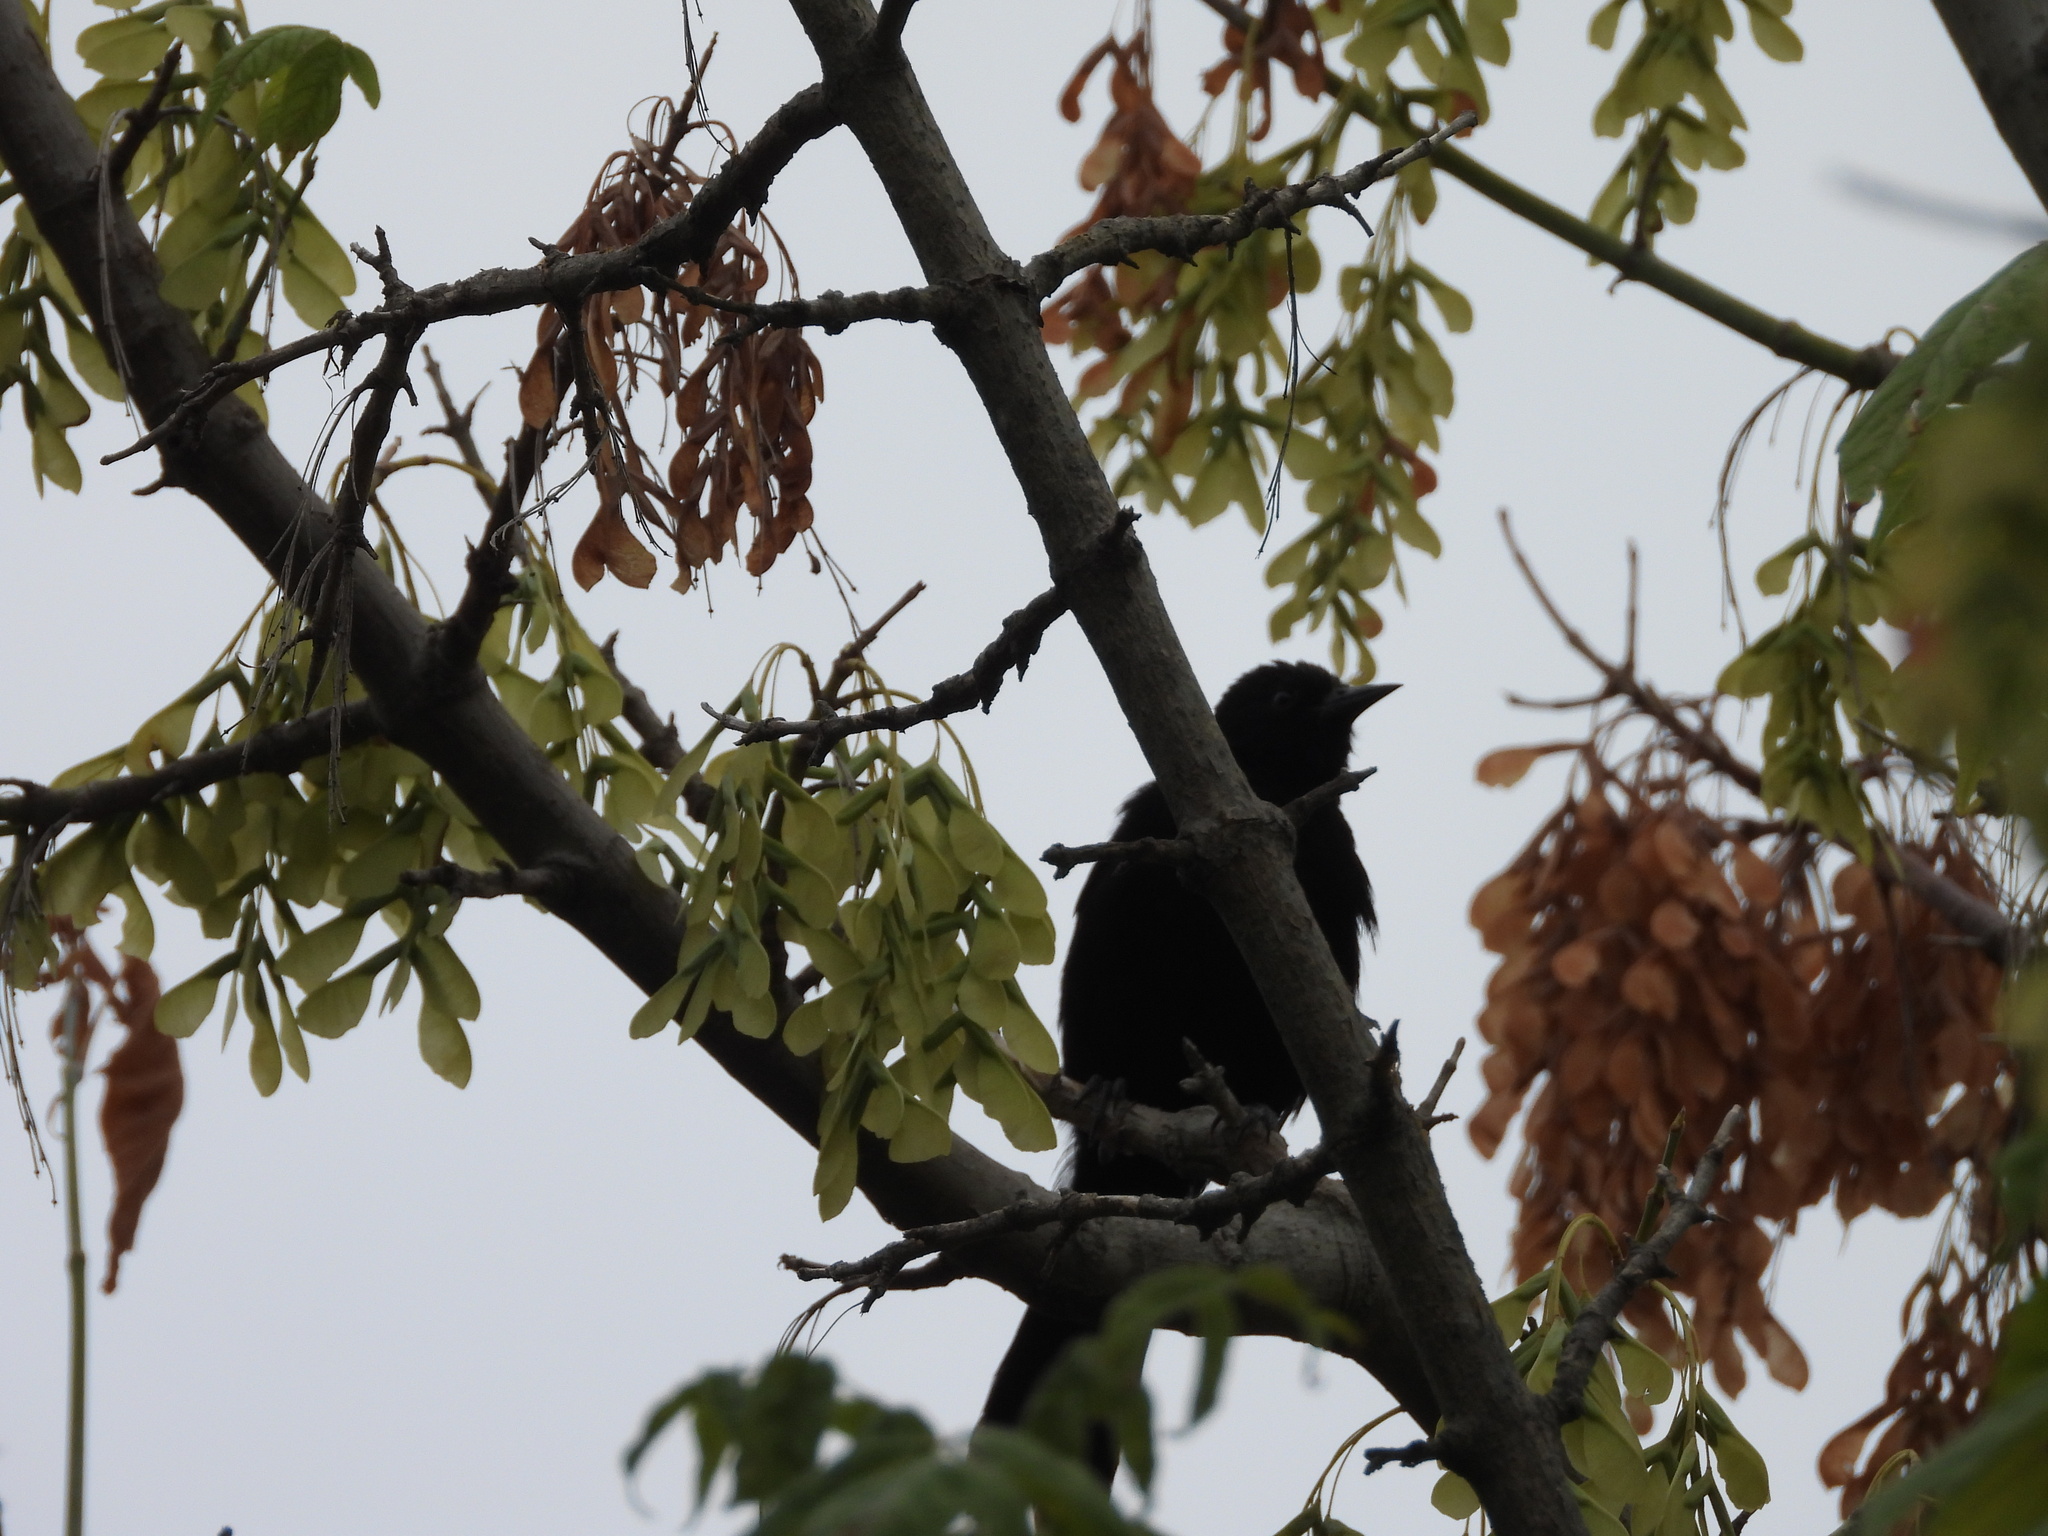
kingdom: Animalia
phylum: Chordata
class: Aves
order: Passeriformes
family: Icteridae
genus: Icterus
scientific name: Icterus cayanensis
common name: Epaulet oriole
